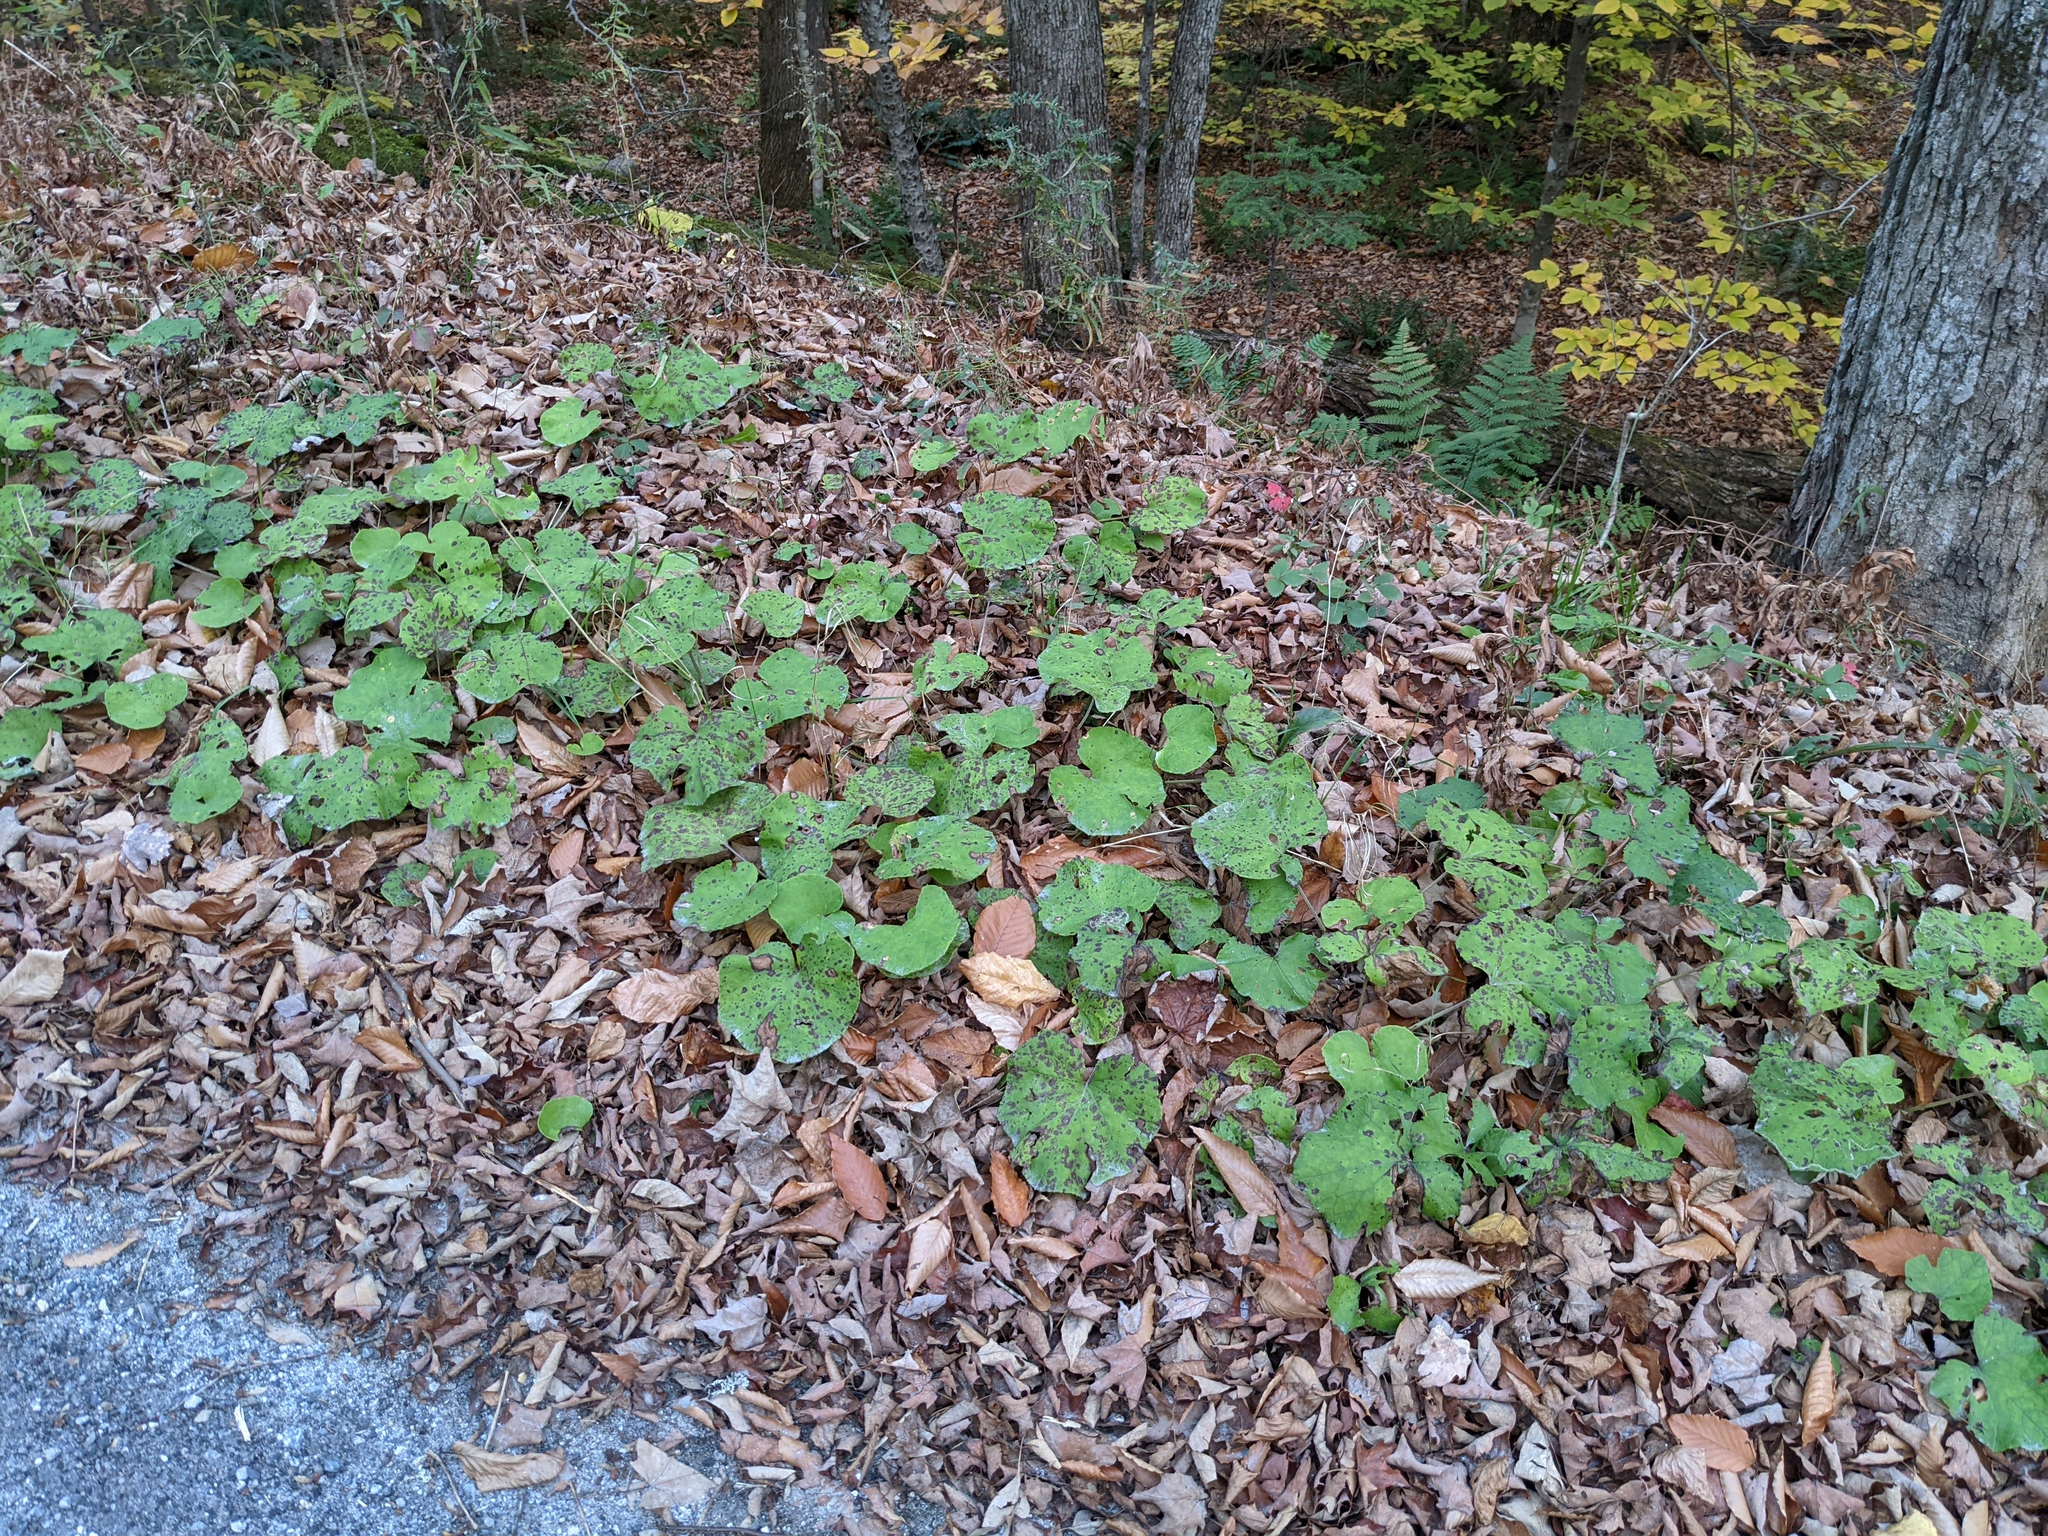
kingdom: Plantae
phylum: Tracheophyta
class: Magnoliopsida
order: Asterales
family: Asteraceae
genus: Tussilago
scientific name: Tussilago farfara
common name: Coltsfoot
